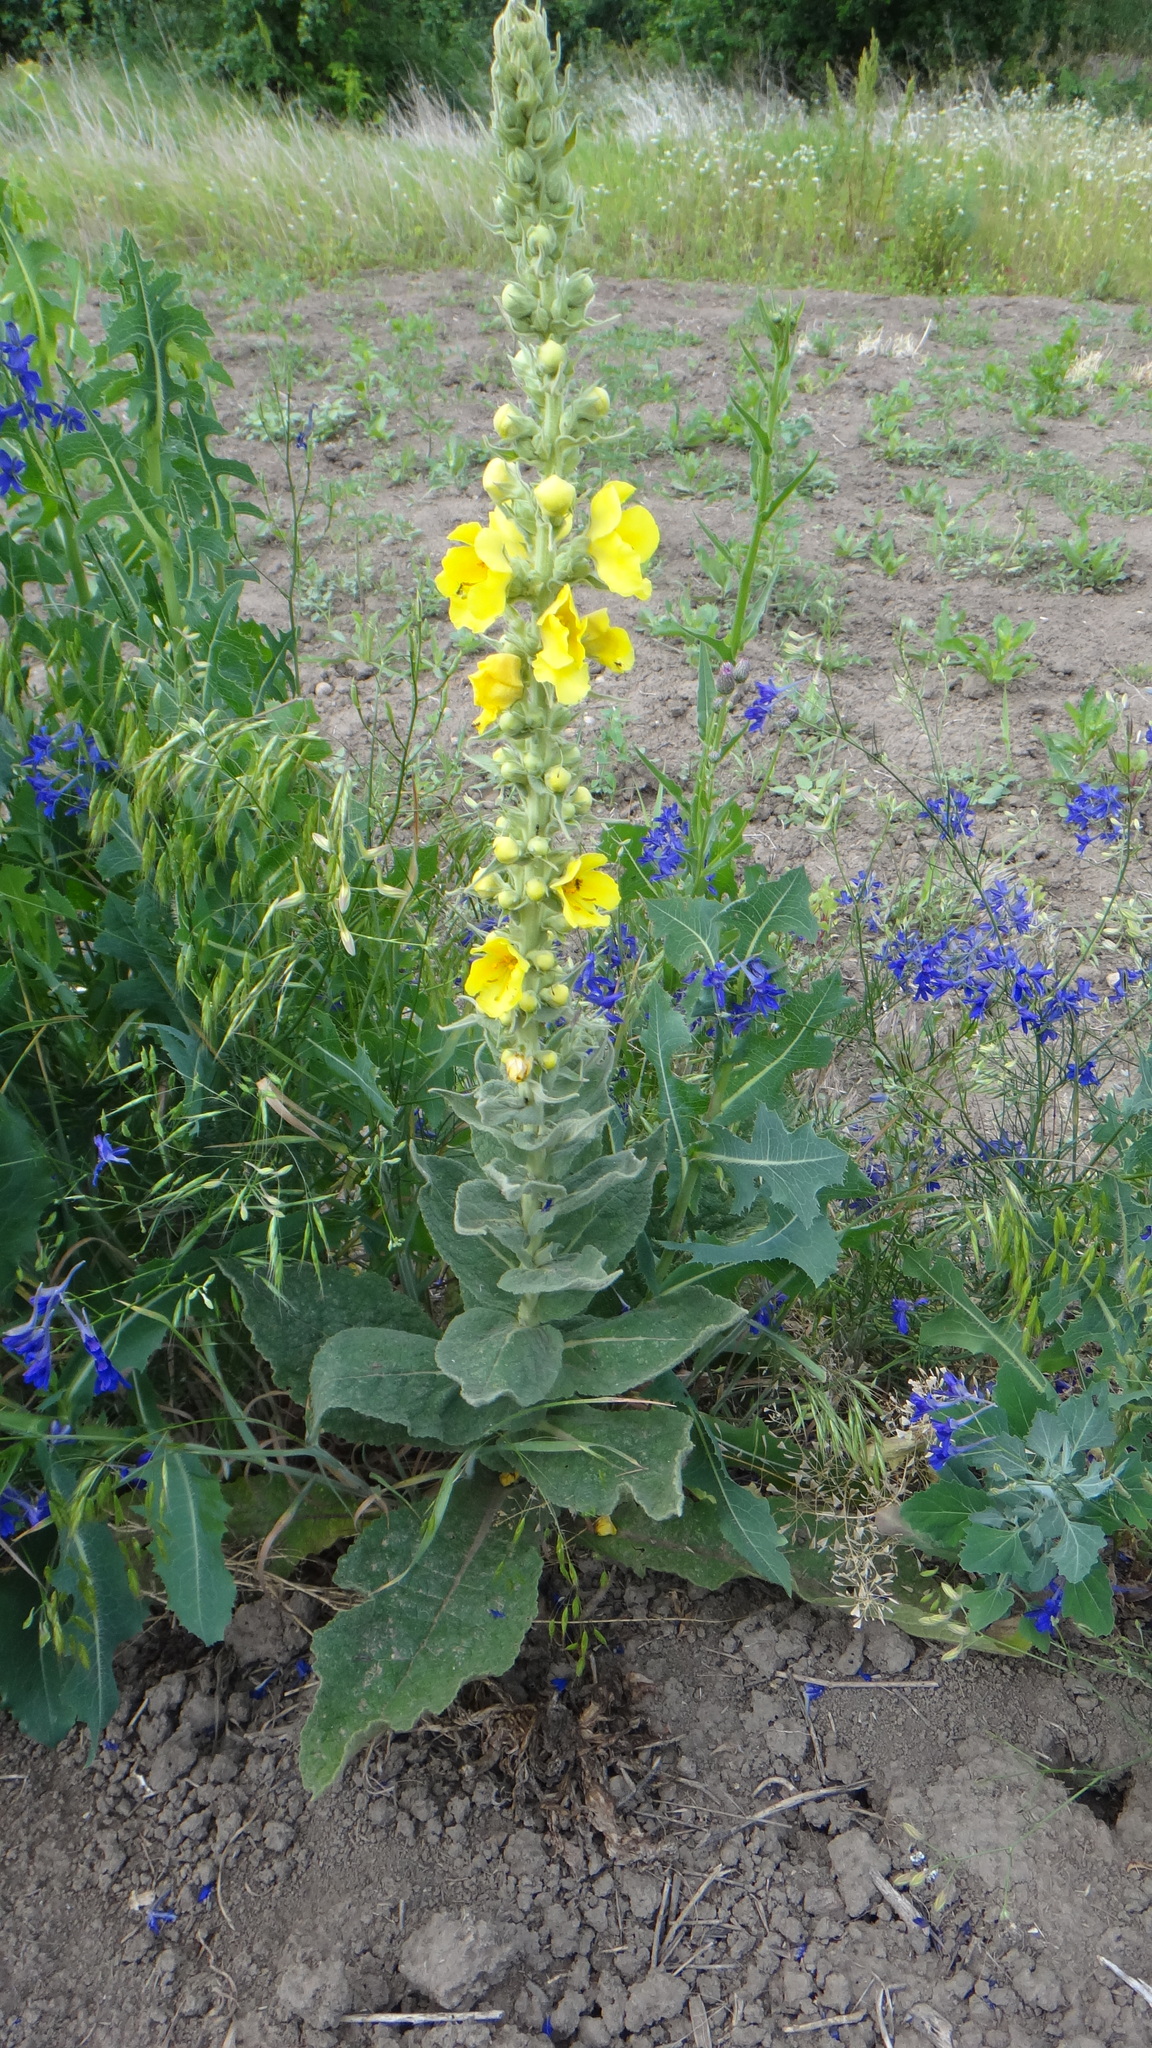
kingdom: Plantae
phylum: Tracheophyta
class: Magnoliopsida
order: Lamiales
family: Scrophulariaceae
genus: Verbascum
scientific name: Verbascum phlomoides
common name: Orange mullein
